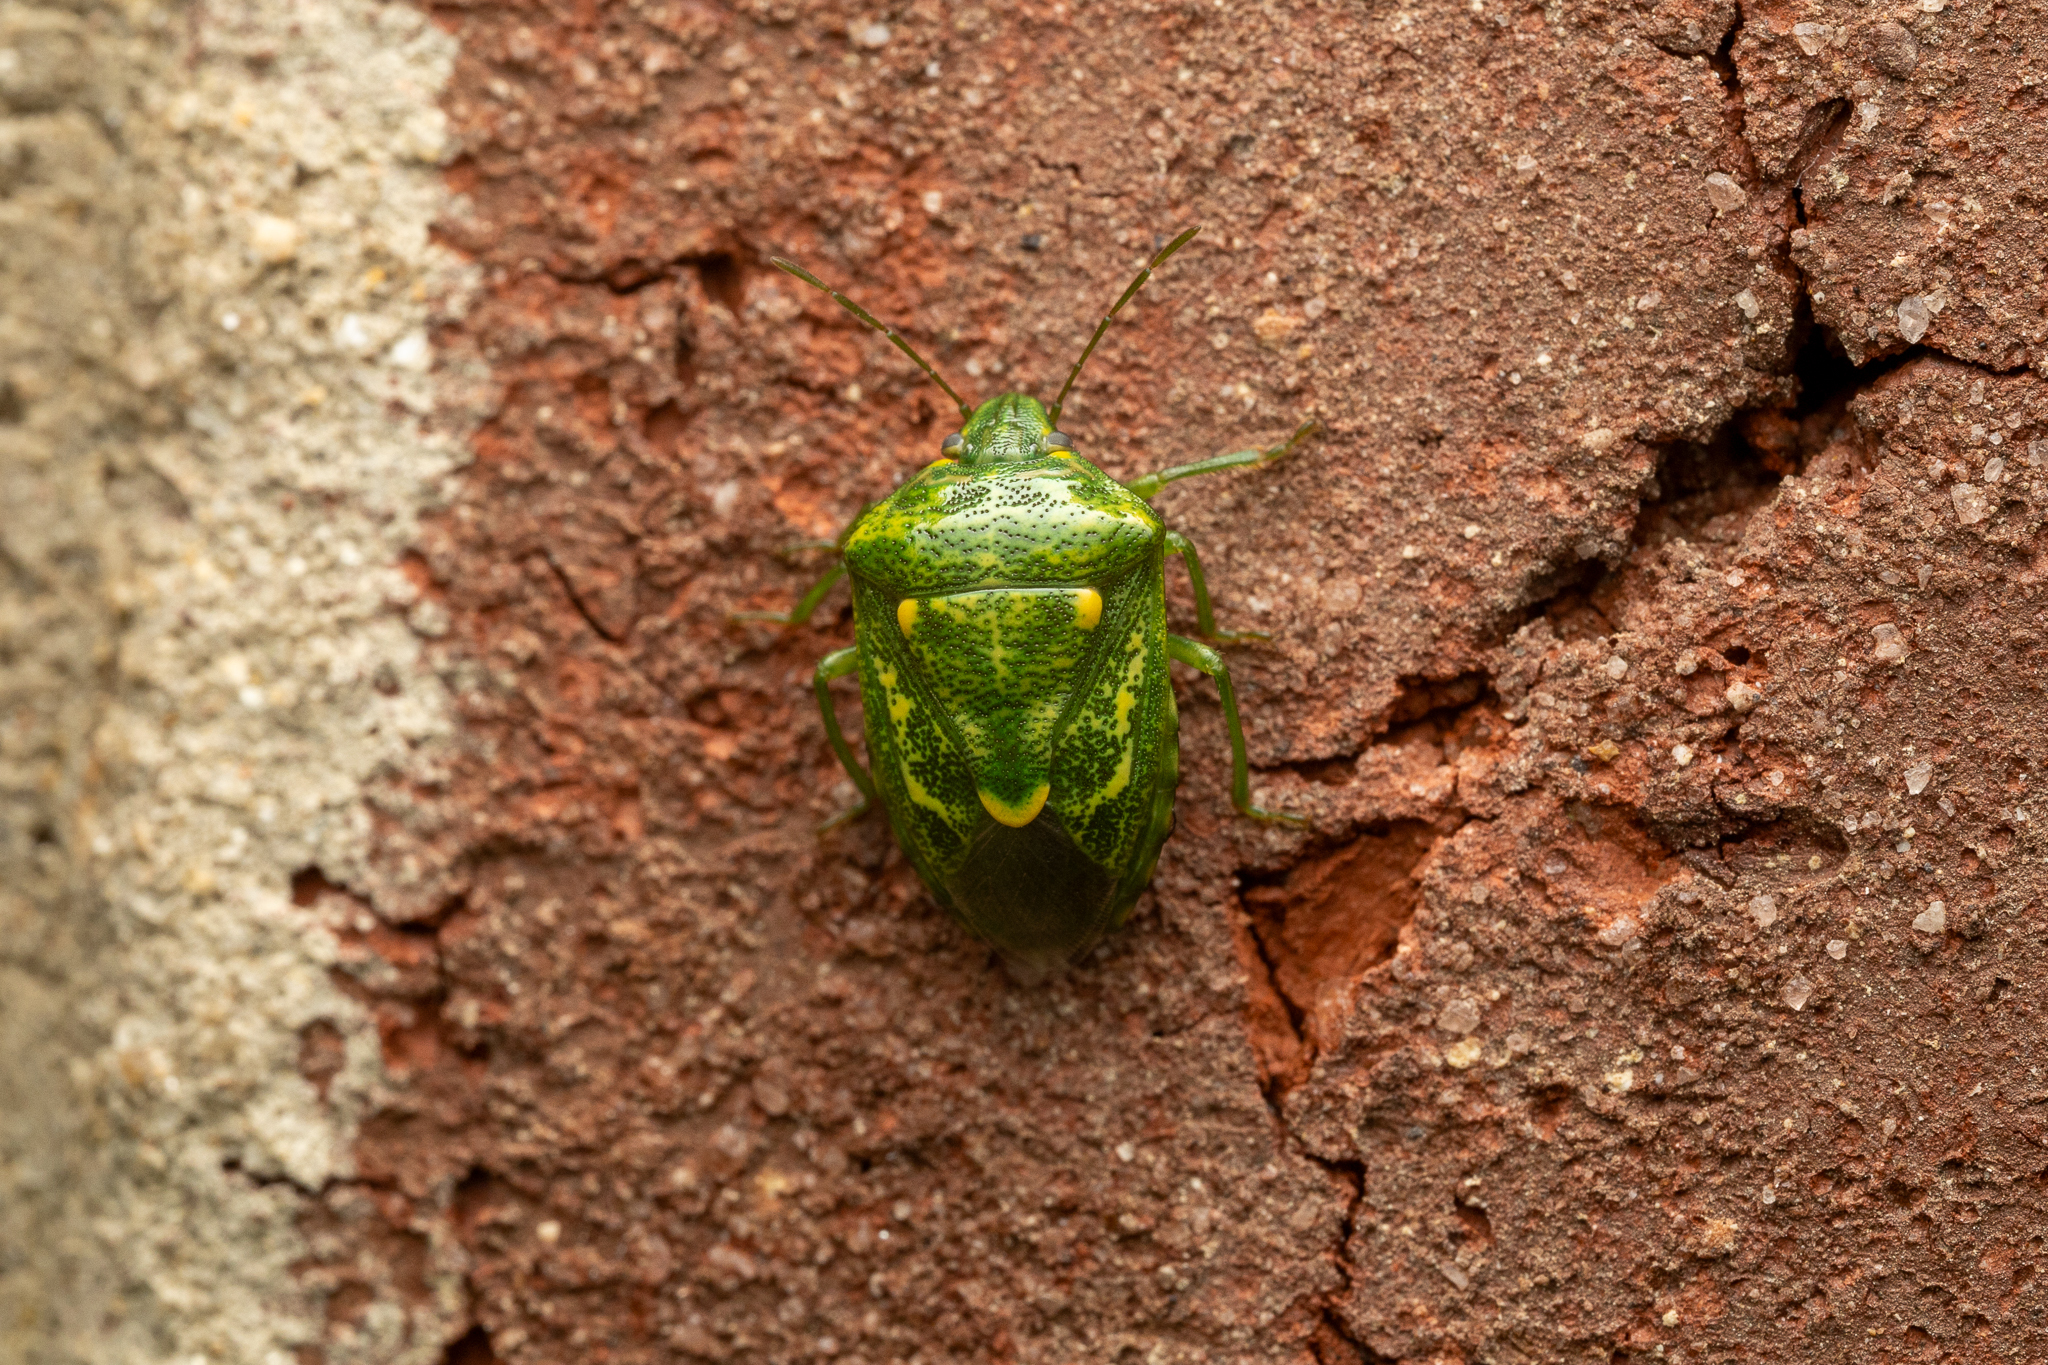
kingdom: Animalia
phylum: Arthropoda
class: Insecta
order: Hemiptera
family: Pentatomidae
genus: Banasa
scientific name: Banasa euchlora
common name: Cedar berry bug
